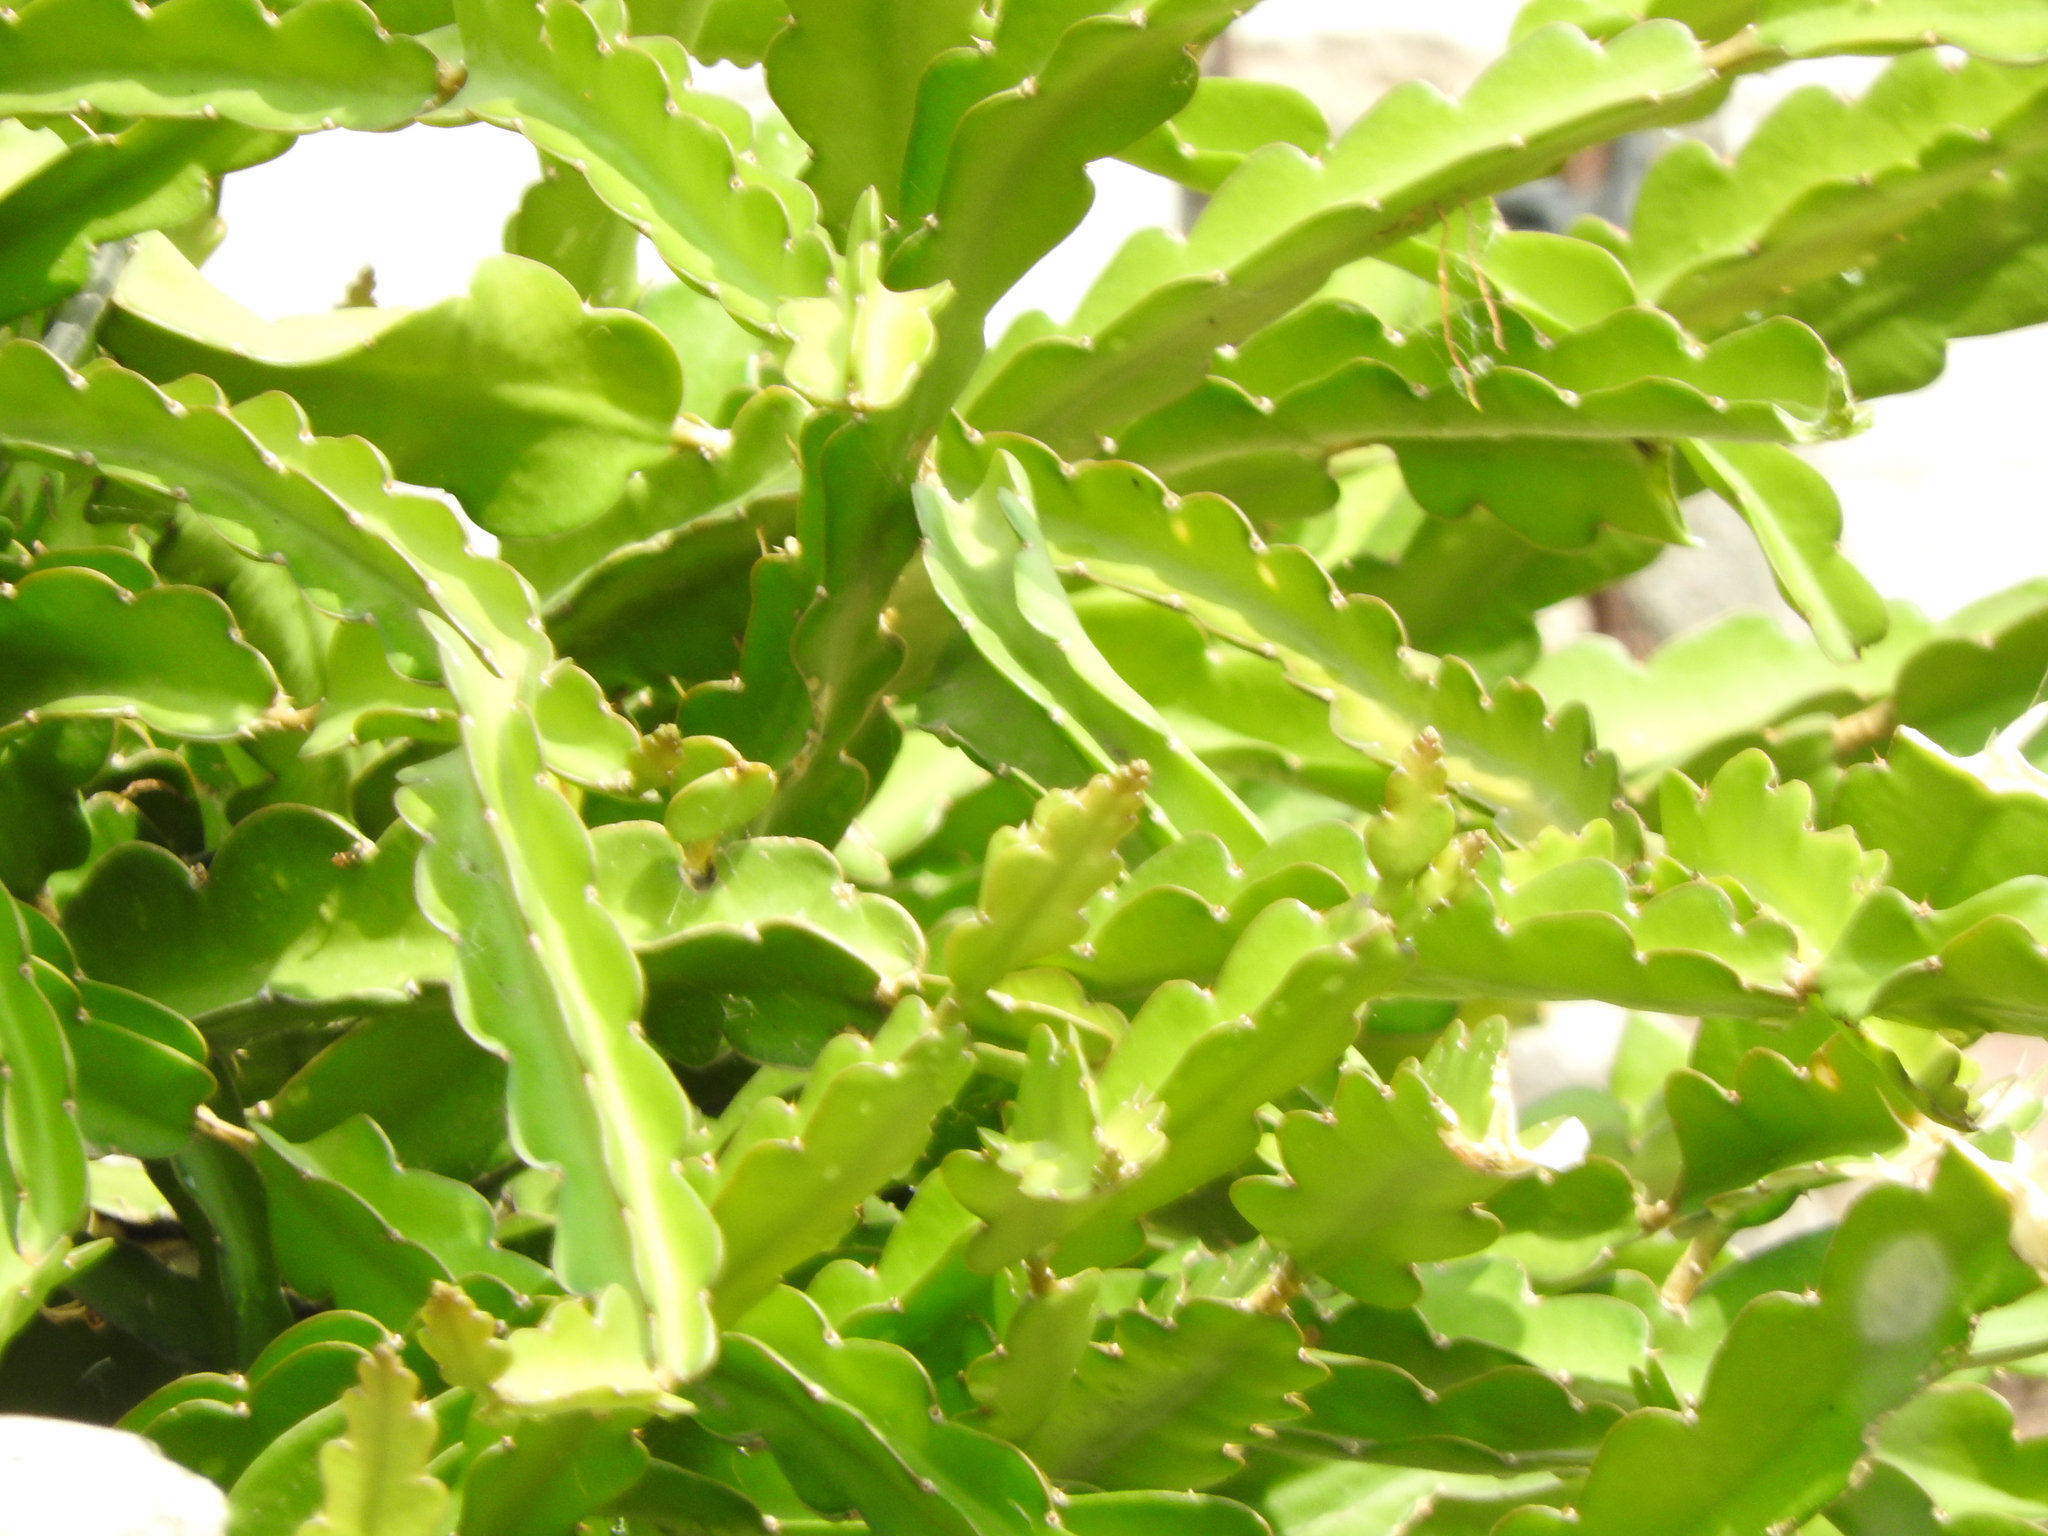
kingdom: Plantae
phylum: Tracheophyta
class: Magnoliopsida
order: Caryophyllales
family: Cactaceae
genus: Selenicereus
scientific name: Selenicereus undatus
